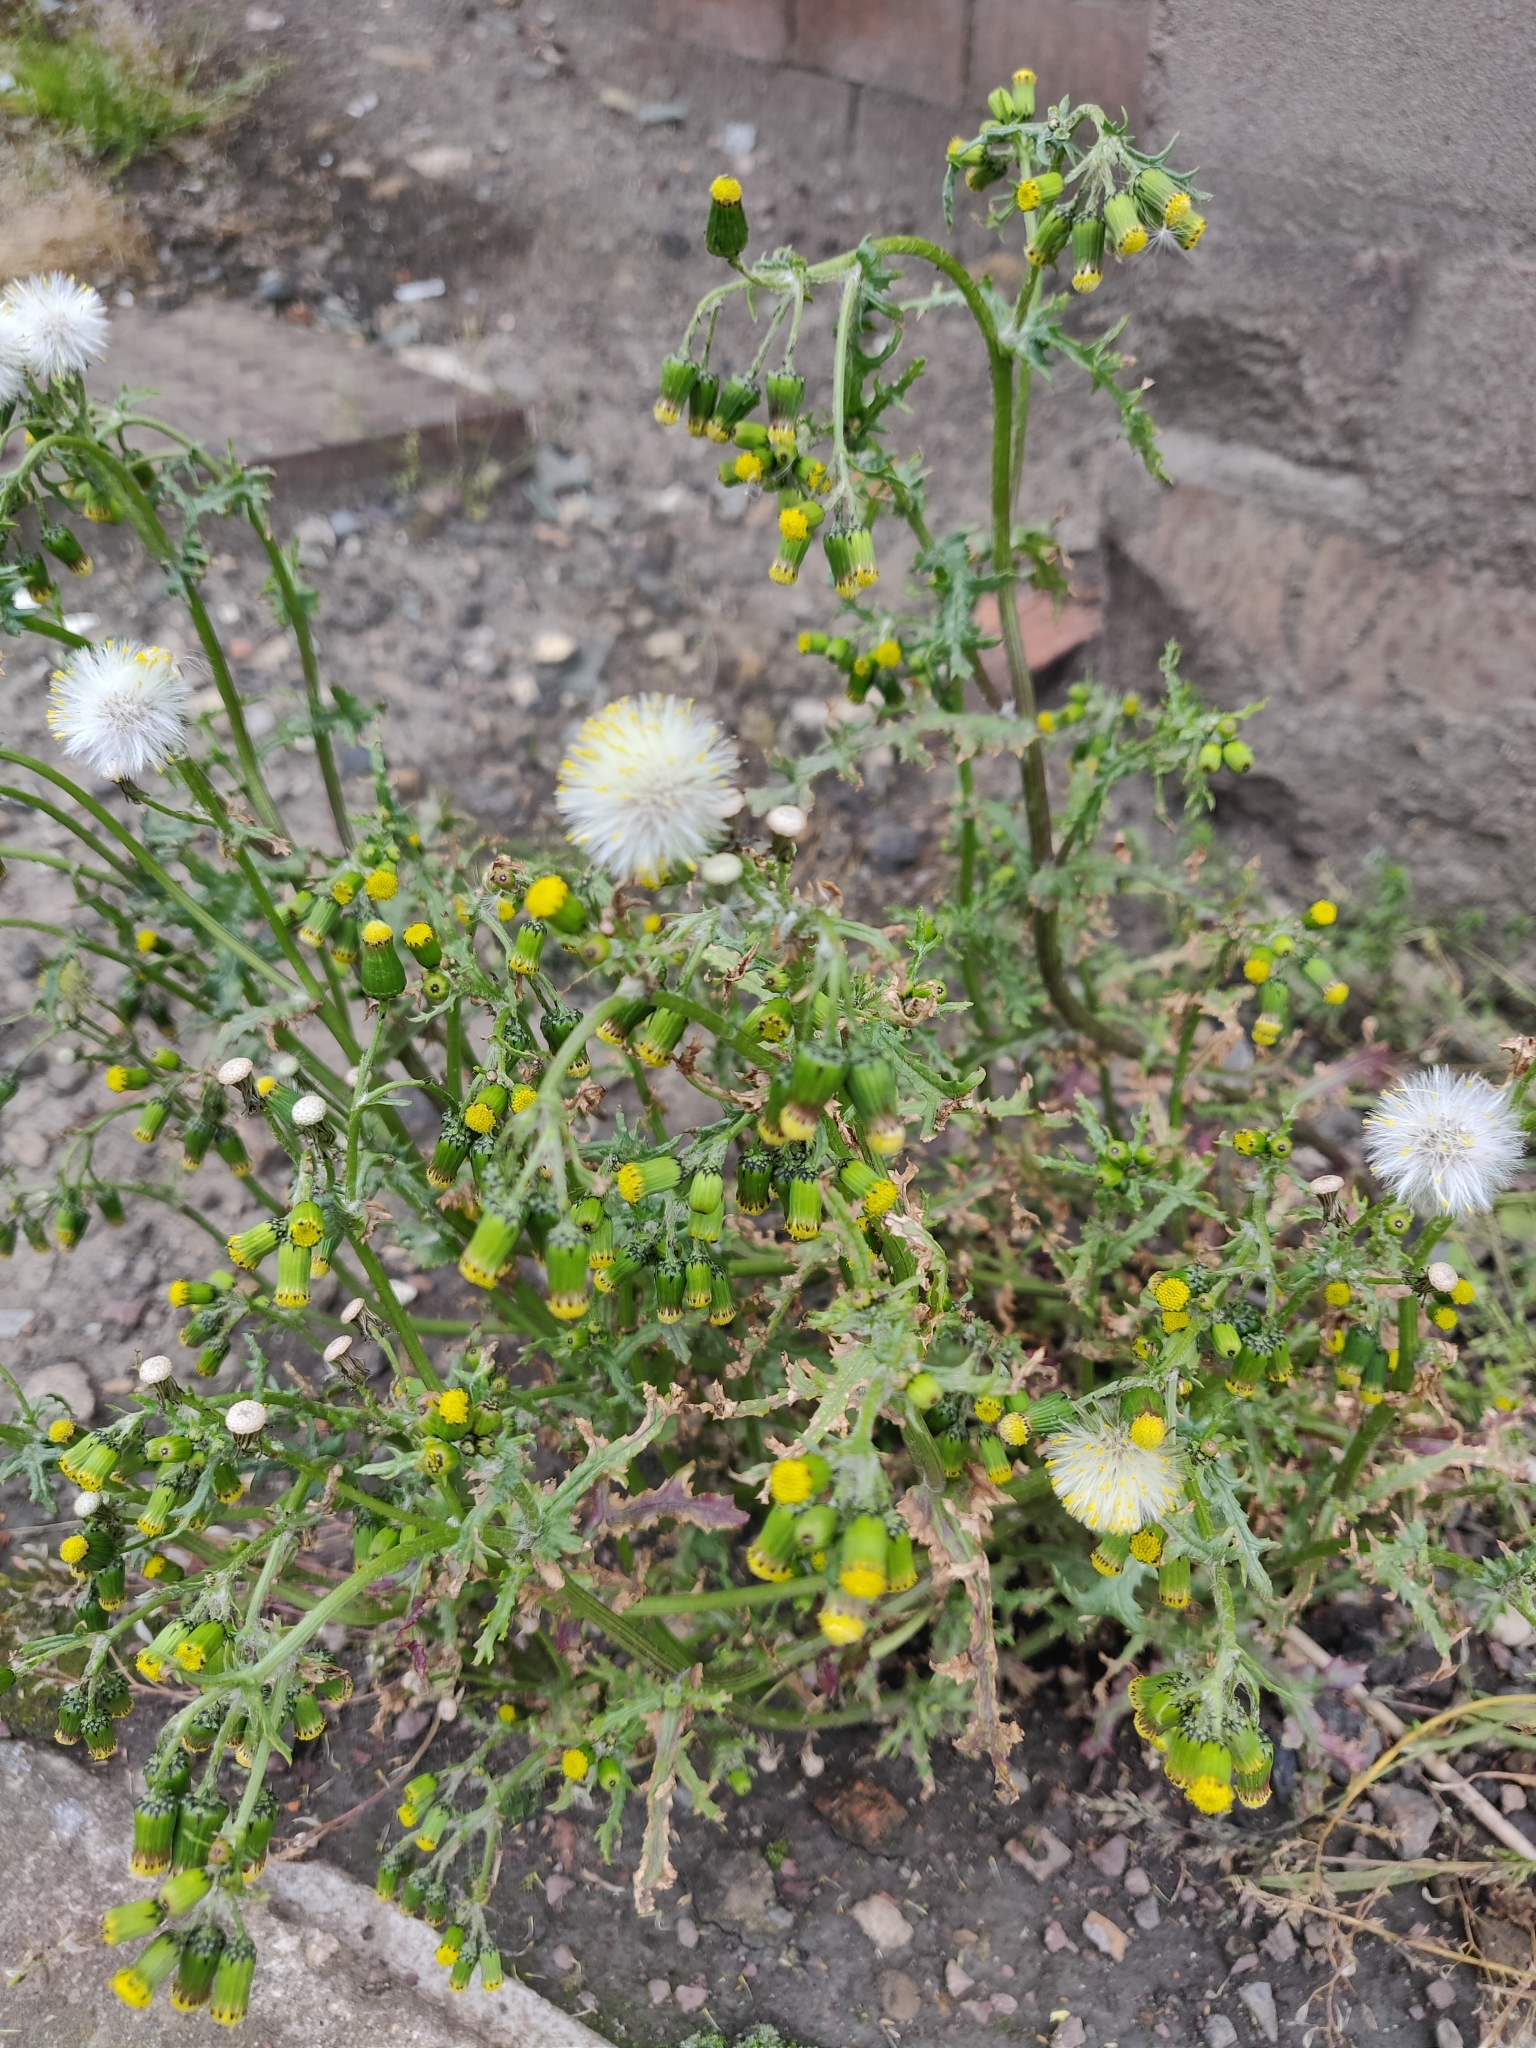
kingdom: Plantae
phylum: Tracheophyta
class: Magnoliopsida
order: Asterales
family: Asteraceae
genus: Senecio
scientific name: Senecio vulgaris
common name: Old-man-in-the-spring
